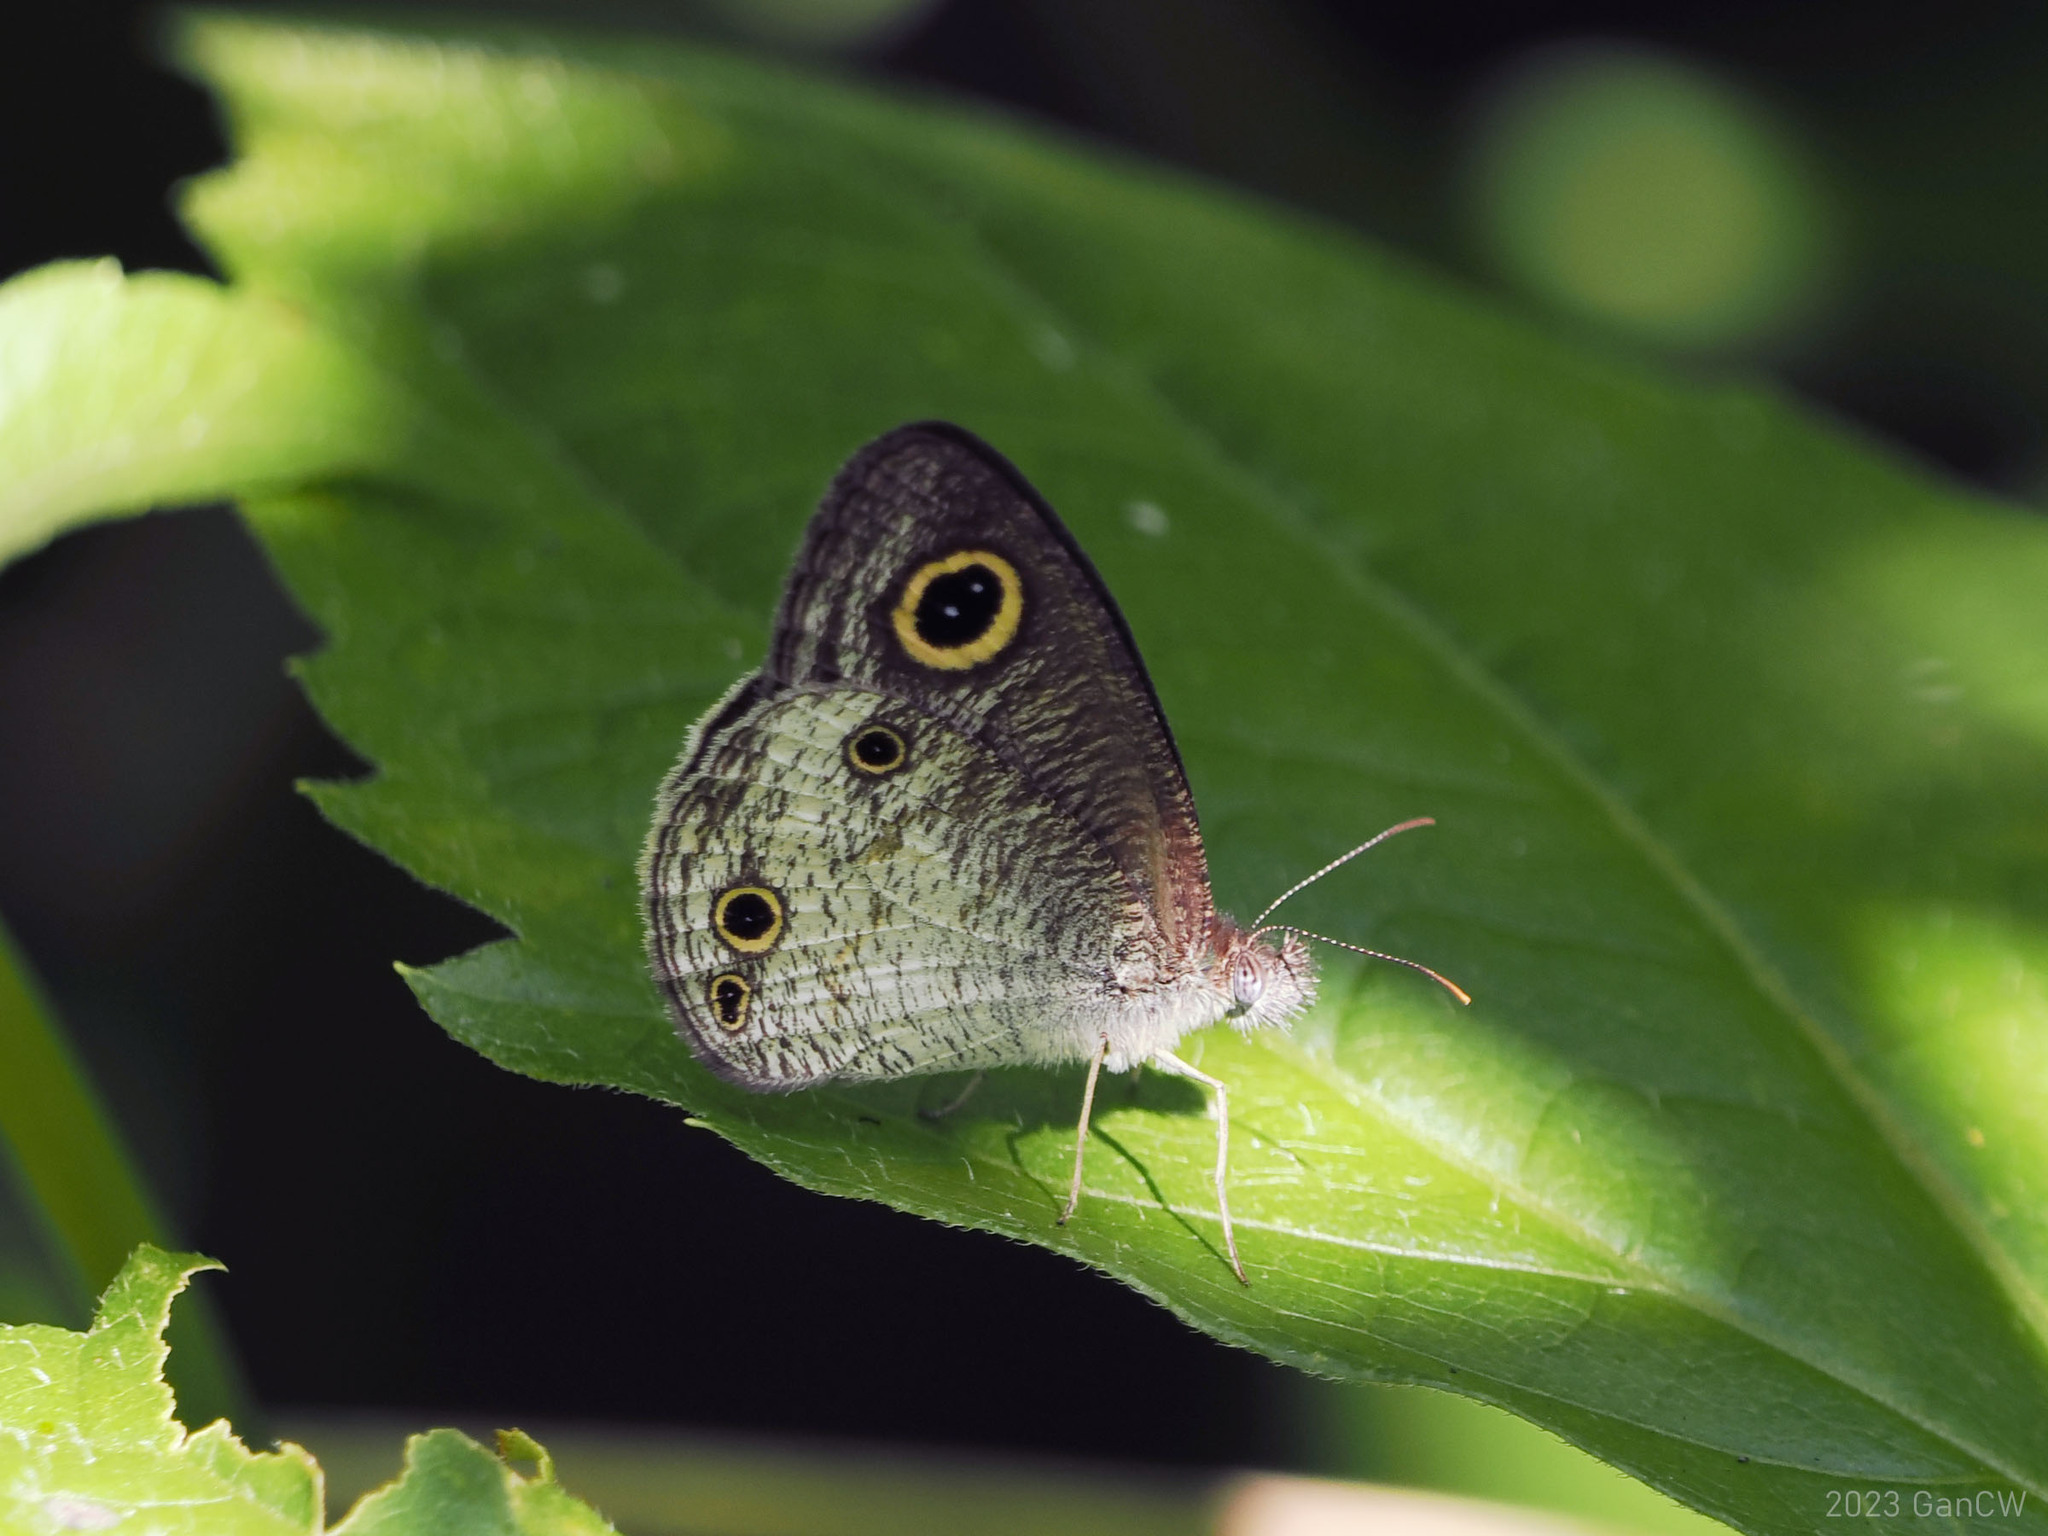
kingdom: Animalia
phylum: Arthropoda
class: Insecta
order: Lepidoptera
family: Nymphalidae
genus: Ypthima
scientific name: Ypthima pandocus
